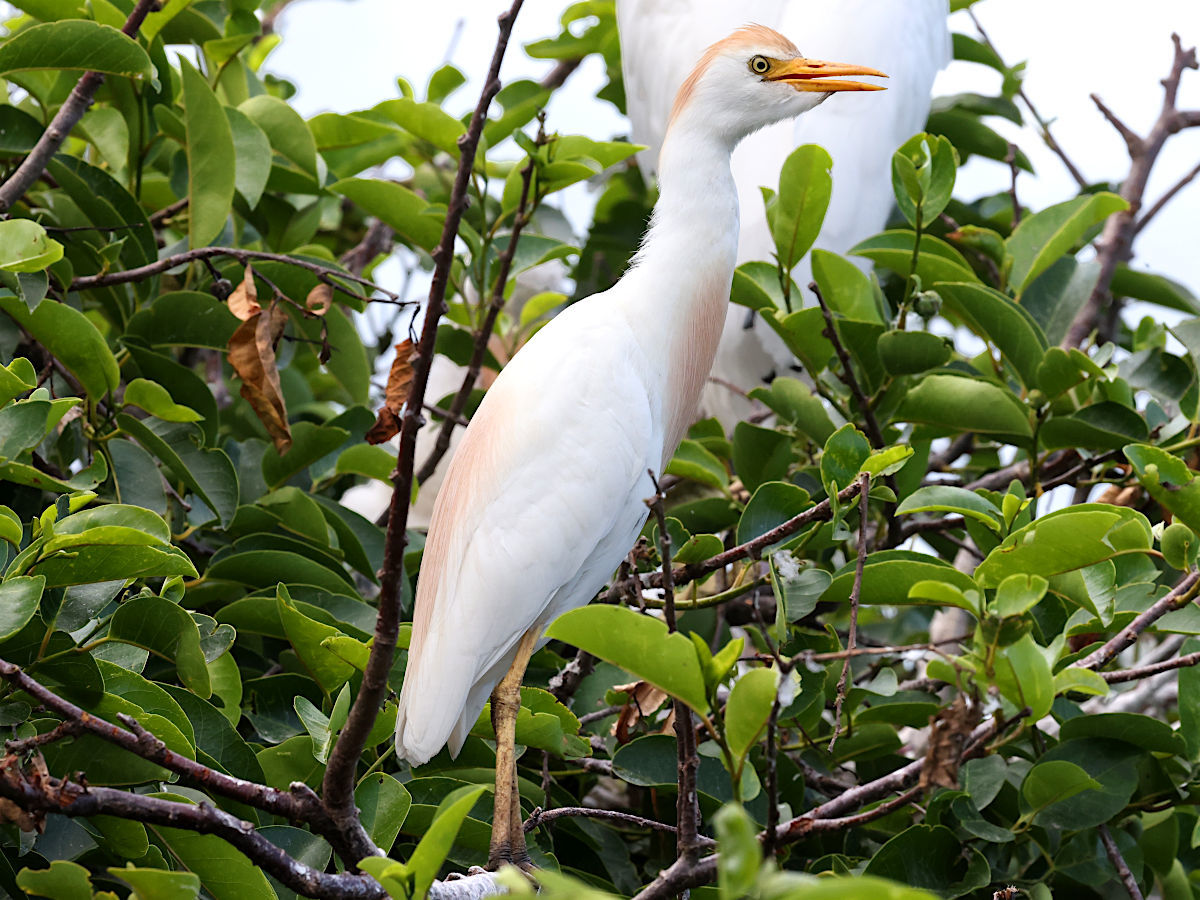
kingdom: Animalia
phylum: Chordata
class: Aves
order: Pelecaniformes
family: Ardeidae
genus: Bubulcus
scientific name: Bubulcus ibis
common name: Cattle egret
